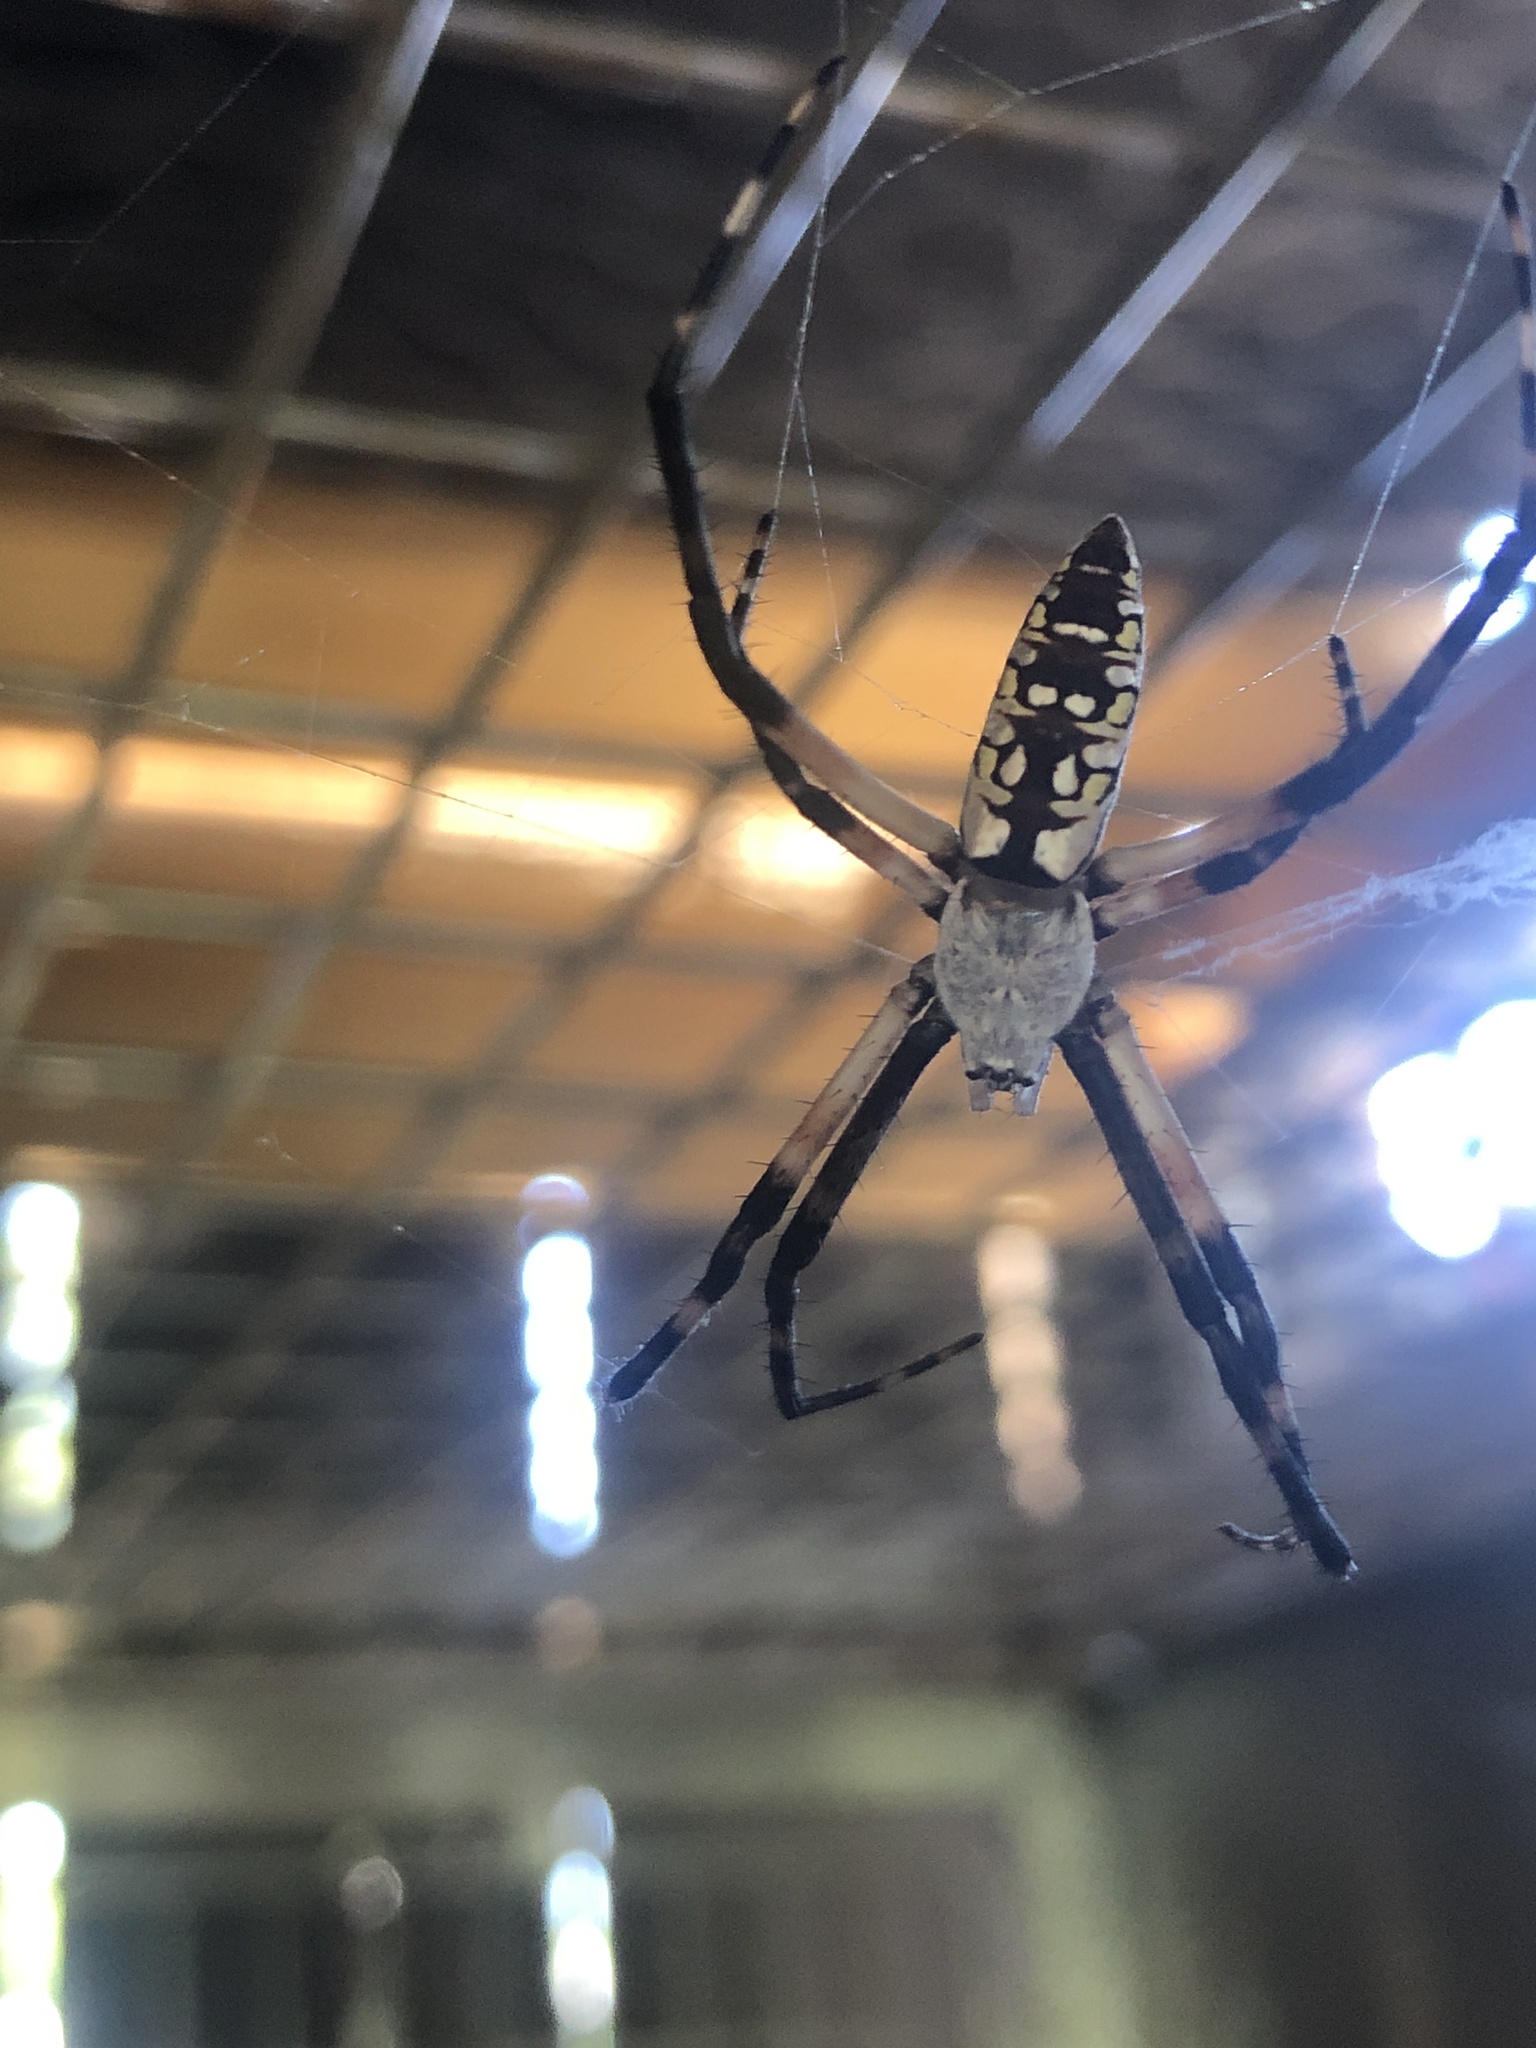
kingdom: Animalia
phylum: Arthropoda
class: Arachnida
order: Araneae
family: Araneidae
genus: Argiope
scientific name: Argiope aurantia
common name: Orb weavers
